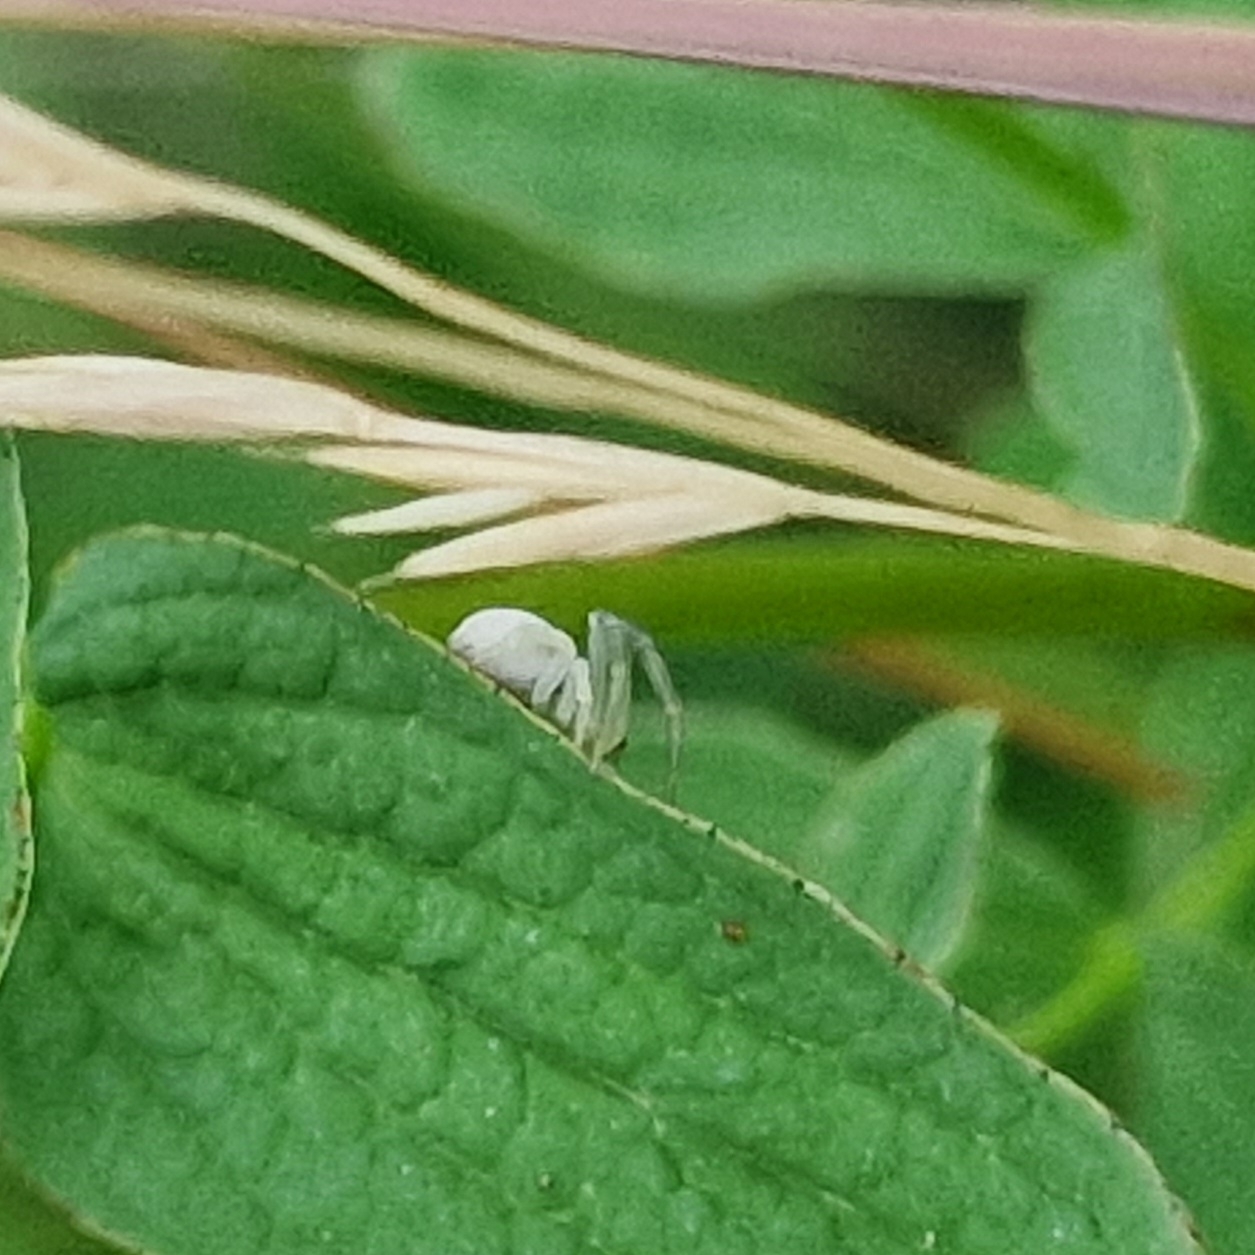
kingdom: Animalia
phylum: Arthropoda
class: Arachnida
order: Araneae
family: Thomisidae
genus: Misumena
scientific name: Misumena vatia
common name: Goldenrod crab spider
